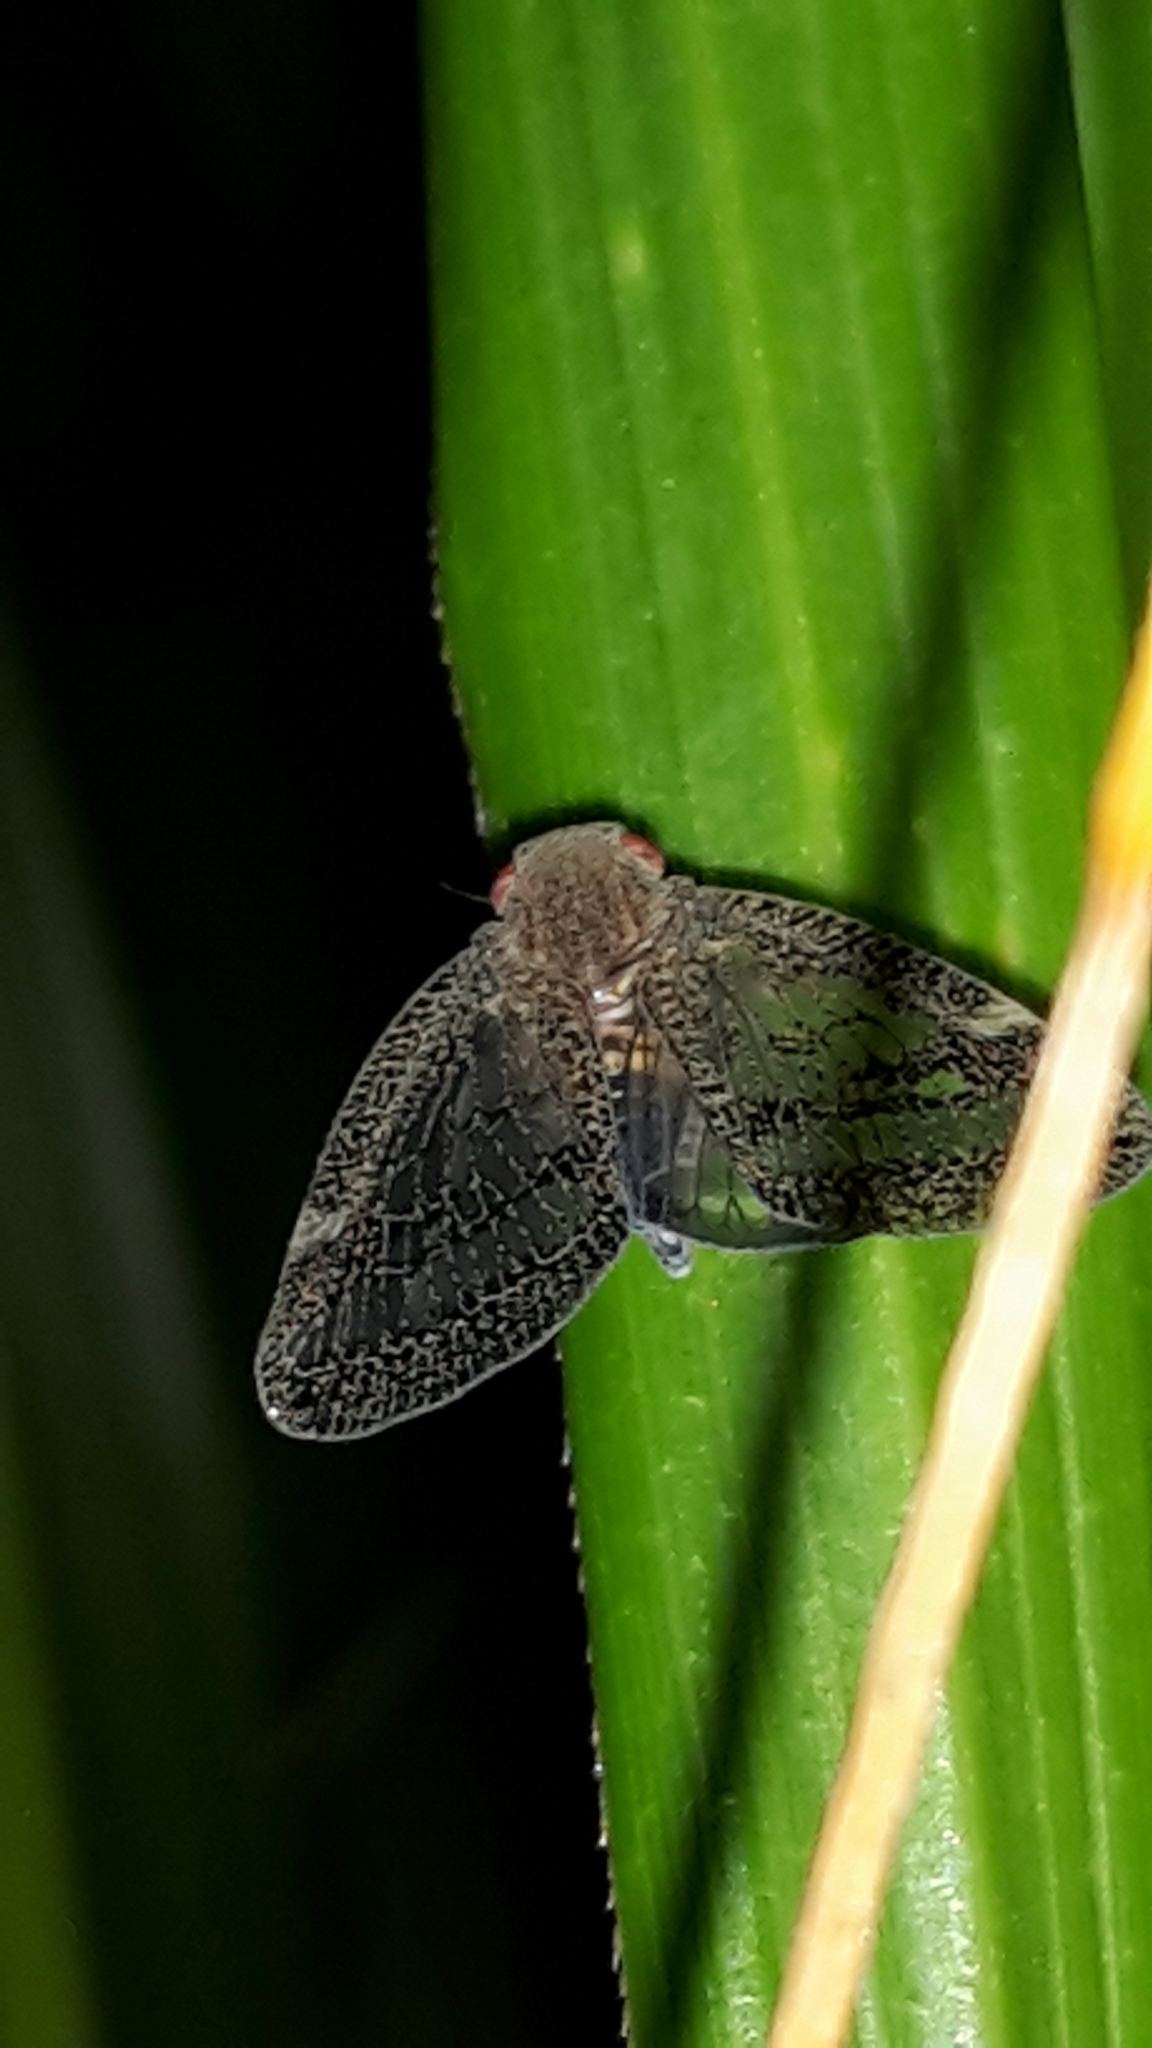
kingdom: Animalia
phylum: Arthropoda
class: Insecta
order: Hemiptera
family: Ricaniidae
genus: Scolypopa
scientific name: Scolypopa australis
